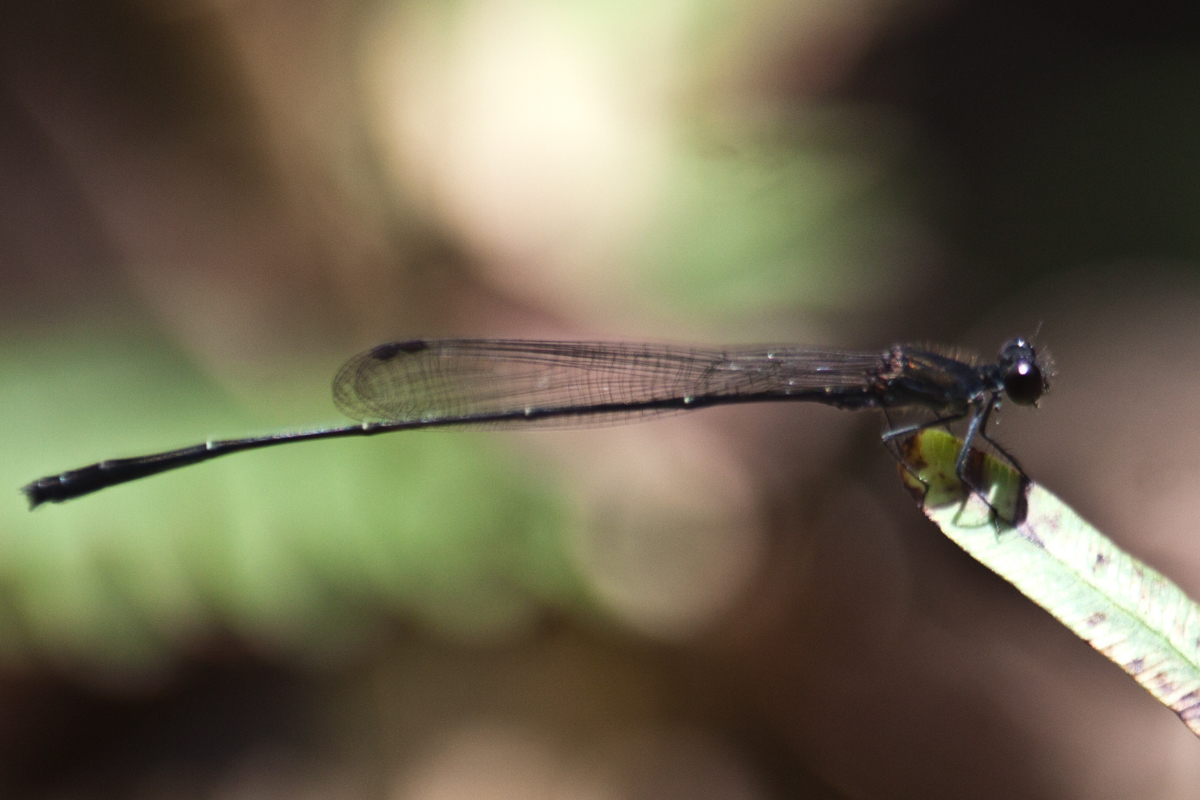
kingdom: Animalia
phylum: Arthropoda
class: Insecta
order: Odonata
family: Platycnemididae
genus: Prodasineura
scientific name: Prodasineura autumnalis
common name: Black threadtail
